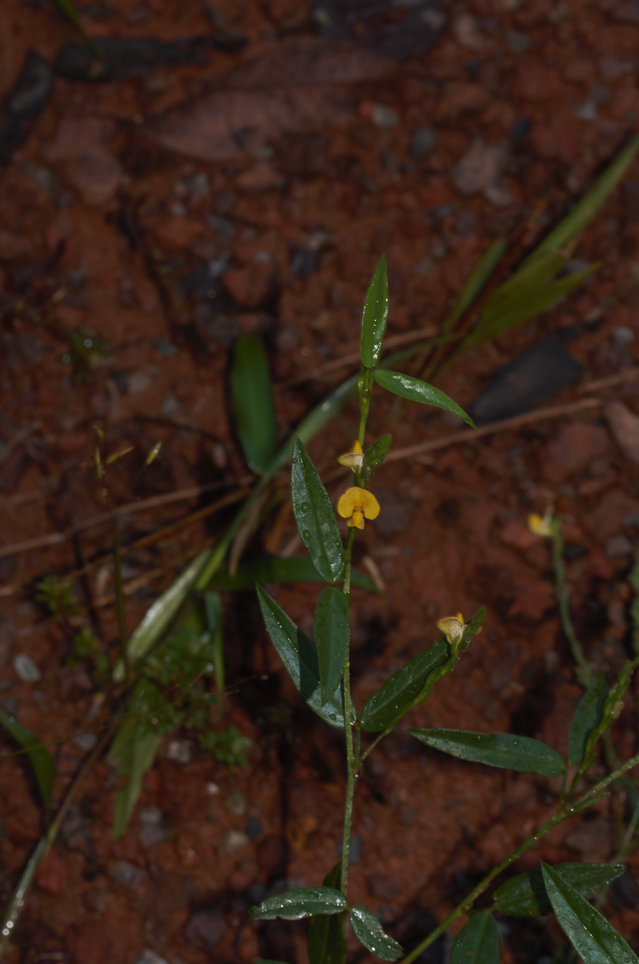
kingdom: Plantae
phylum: Tracheophyta
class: Magnoliopsida
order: Fabales
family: Fabaceae
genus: Zornia
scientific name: Zornia latifolia
